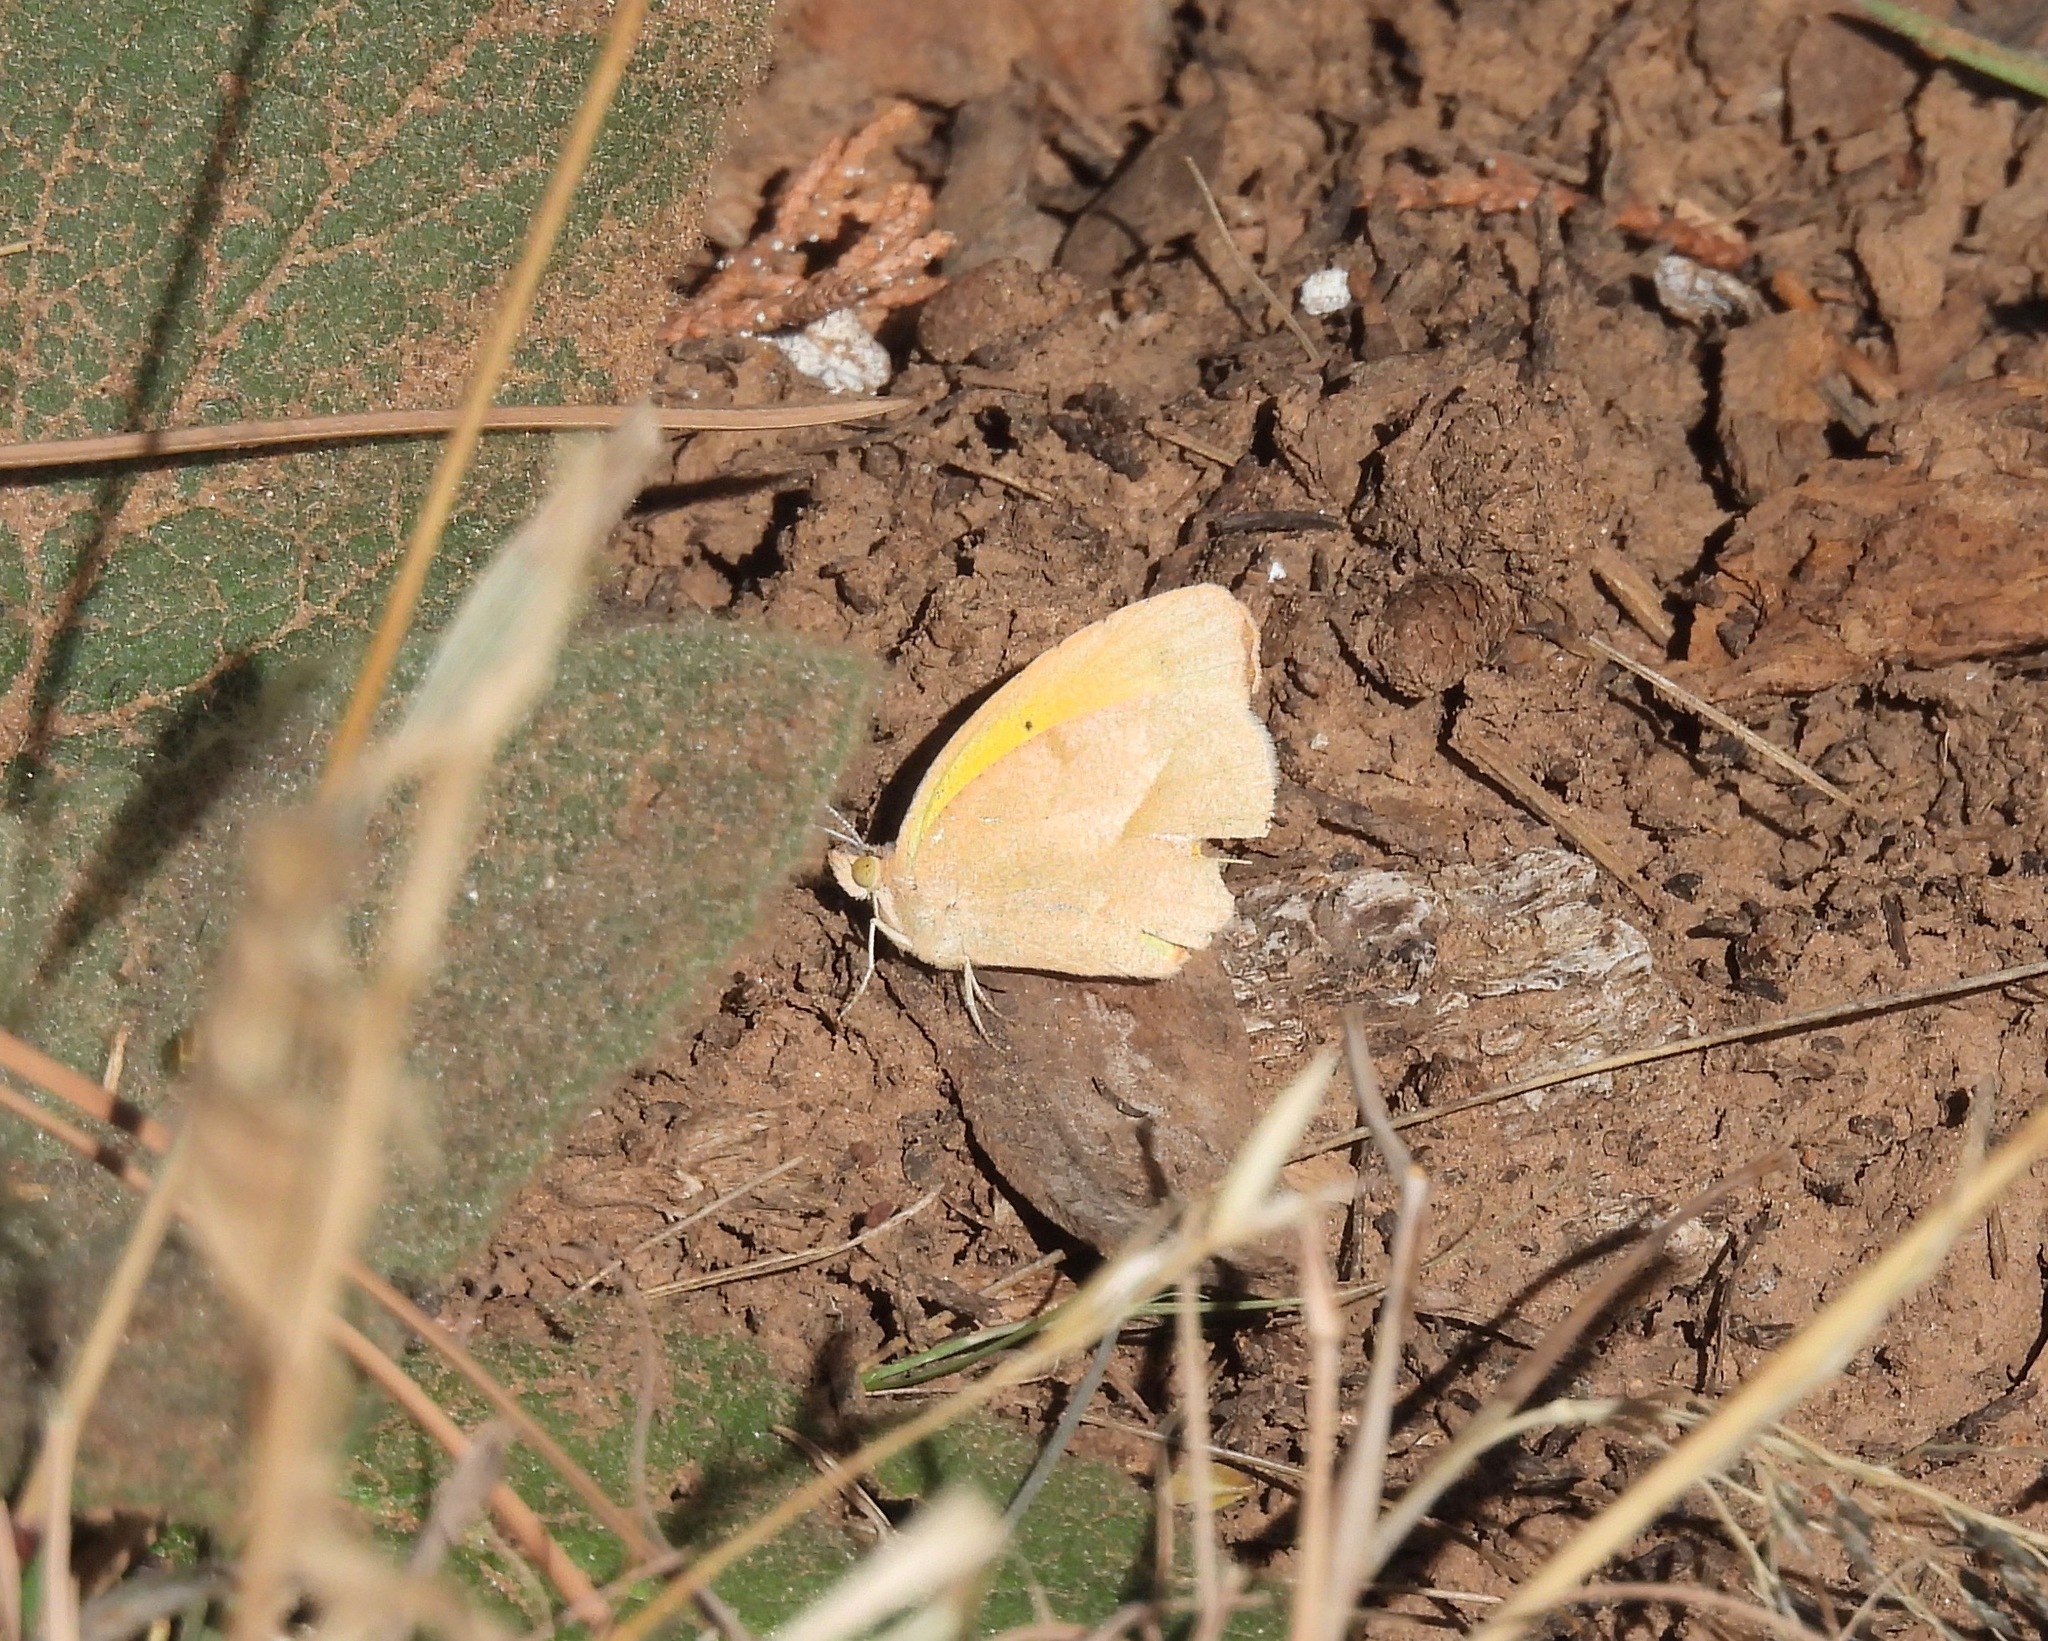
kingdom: Animalia
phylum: Arthropoda
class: Insecta
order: Lepidoptera
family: Pieridae
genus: Abaeis
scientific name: Abaeis nicippe
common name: Sleepy orange
